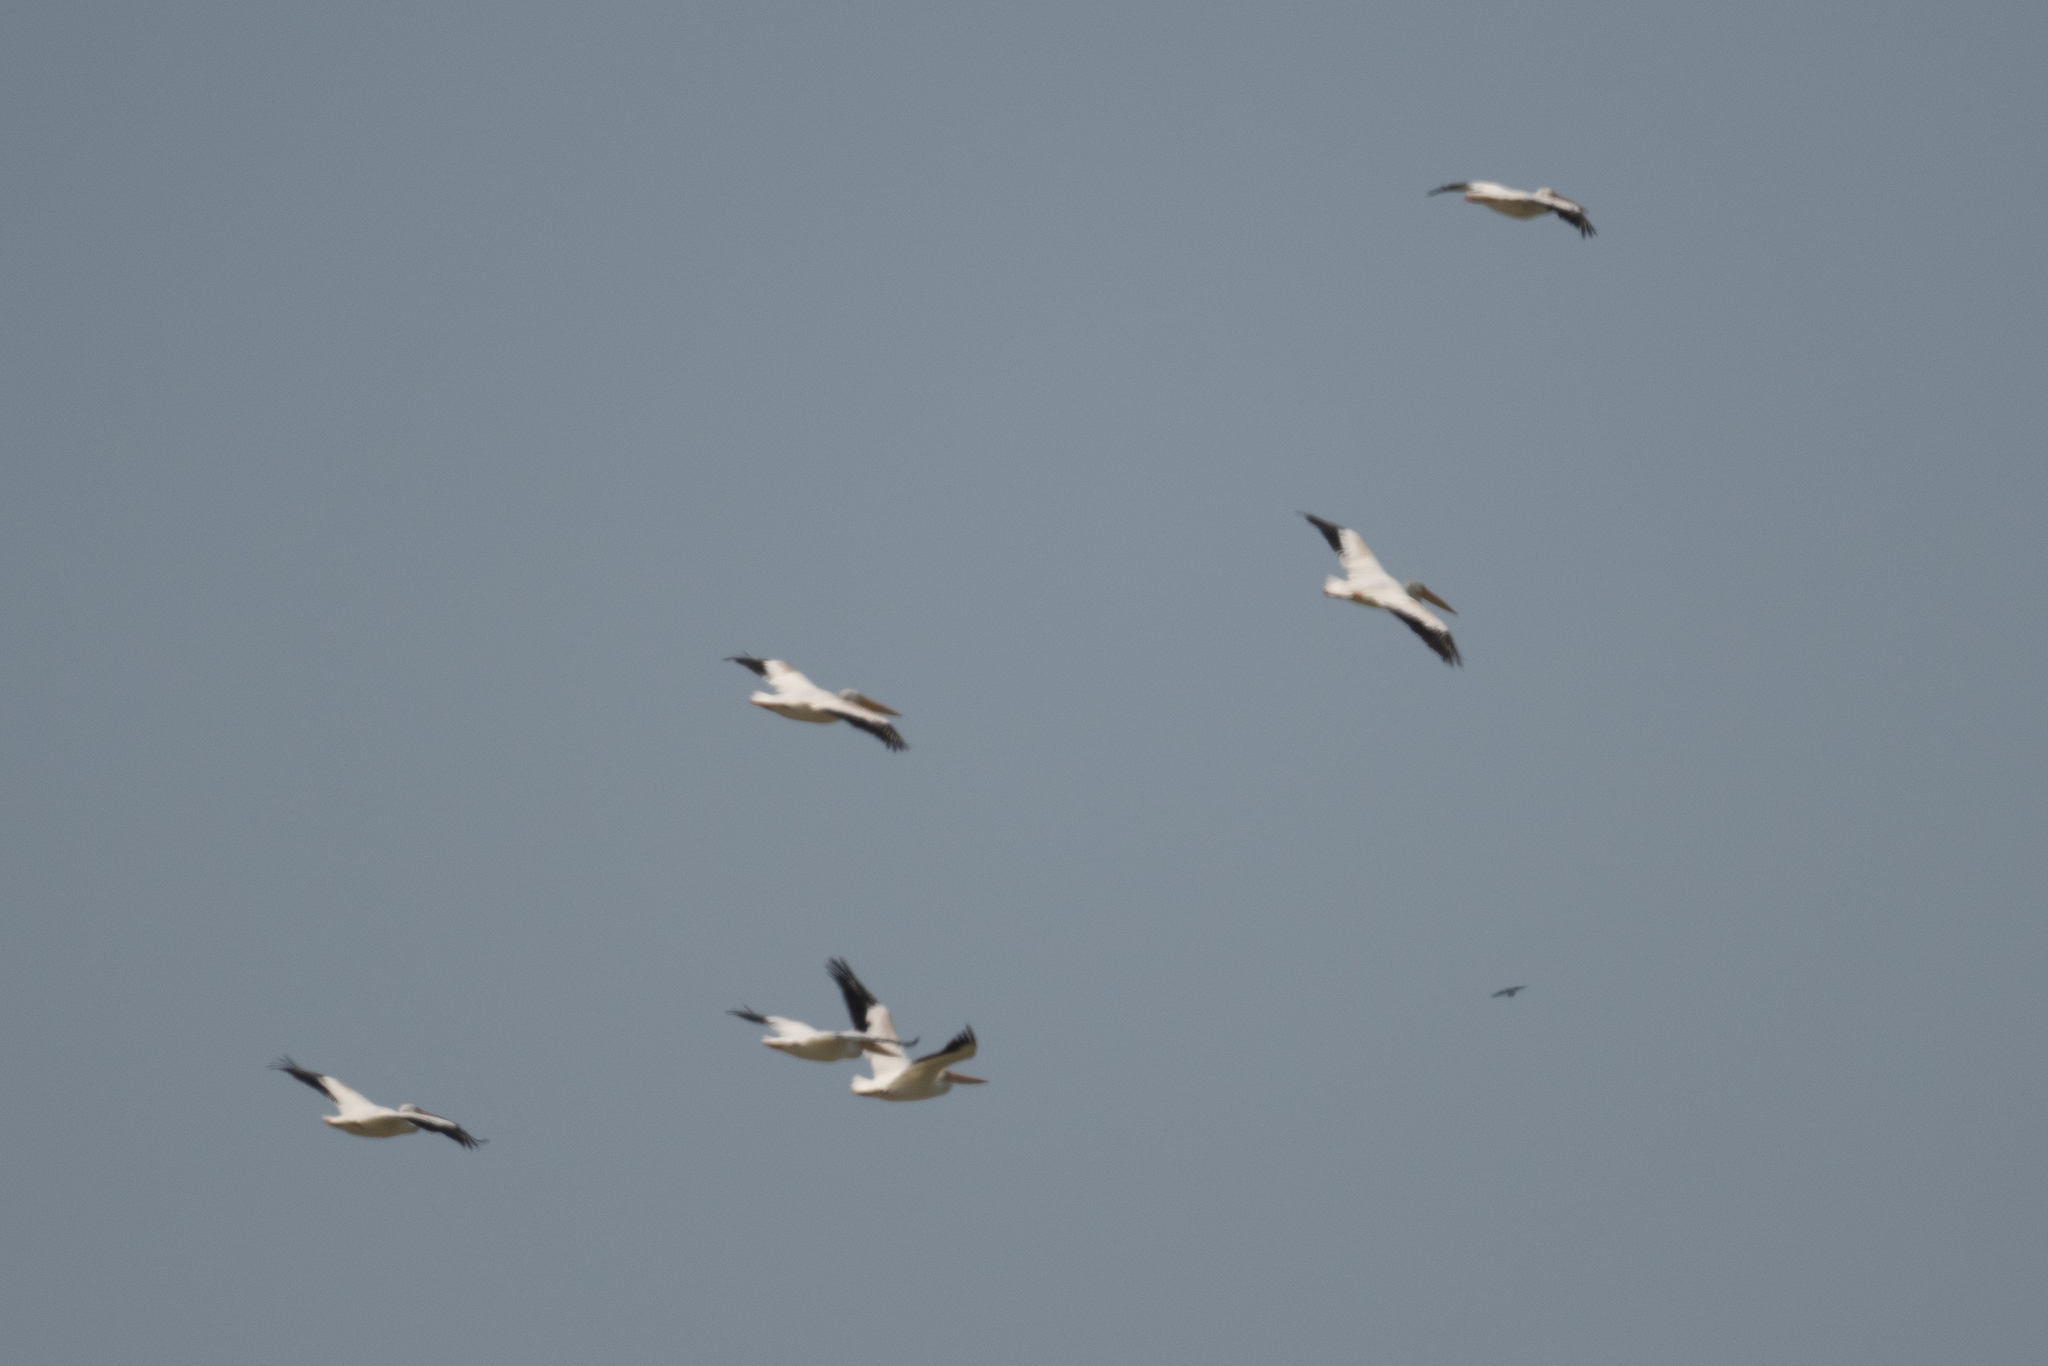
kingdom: Animalia
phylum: Chordata
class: Aves
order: Pelecaniformes
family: Pelecanidae
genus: Pelecanus
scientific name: Pelecanus erythrorhynchos
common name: American white pelican
